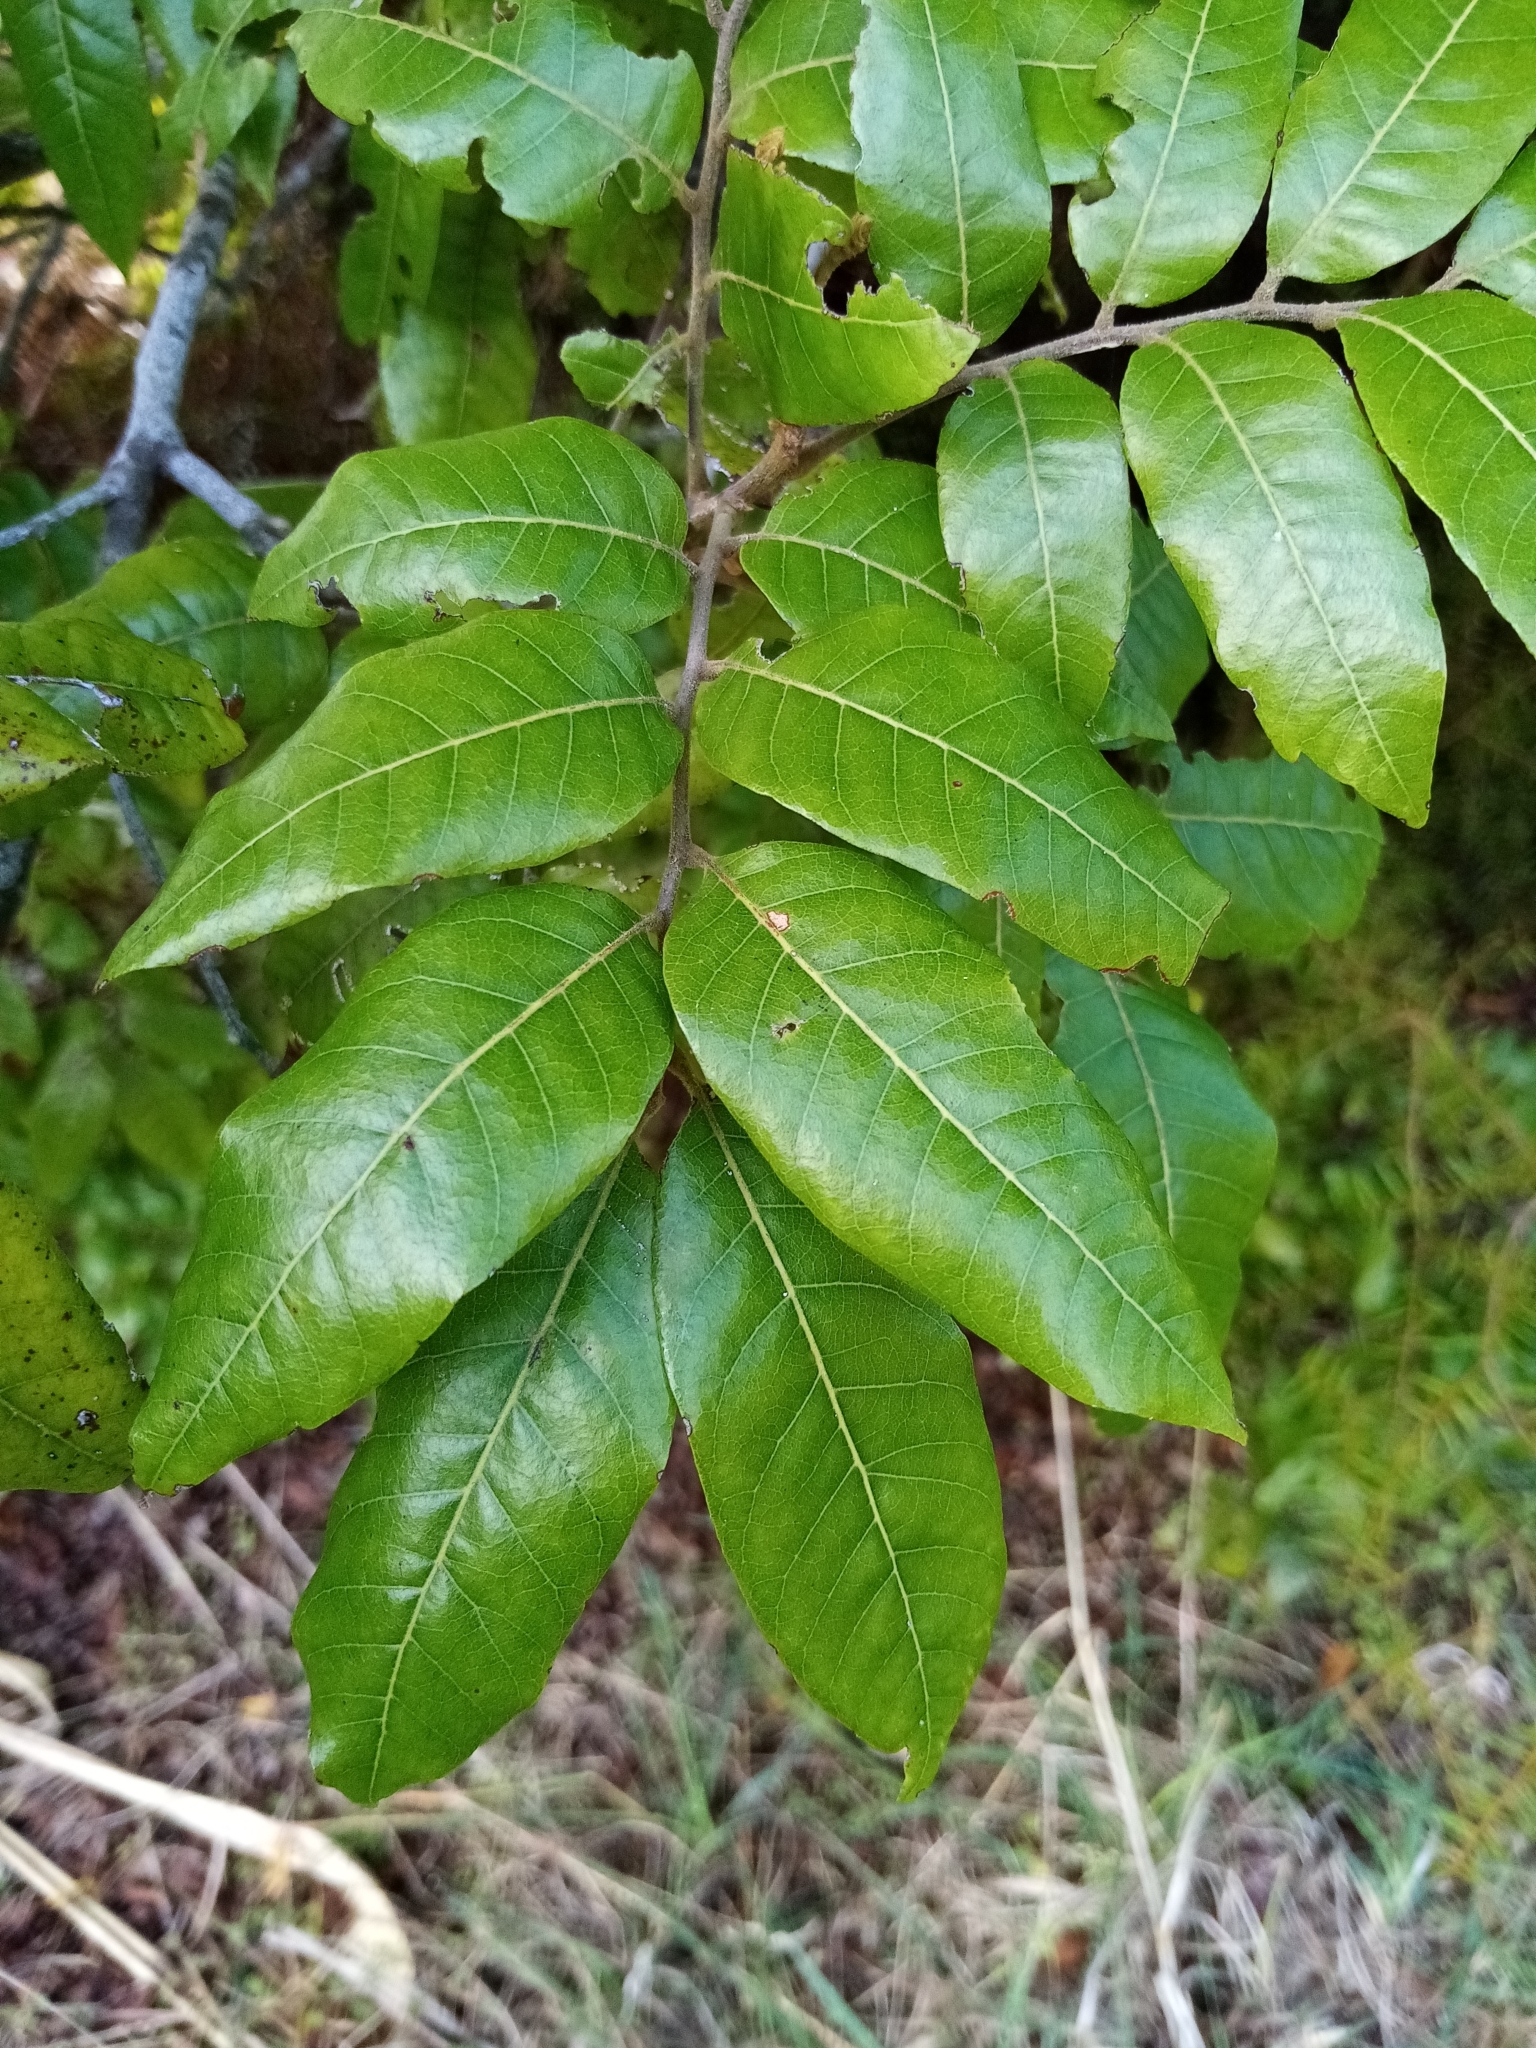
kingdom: Plantae
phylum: Tracheophyta
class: Magnoliopsida
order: Sapindales
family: Sapindaceae
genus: Alectryon
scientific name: Alectryon excelsus
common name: Three kings titoki
